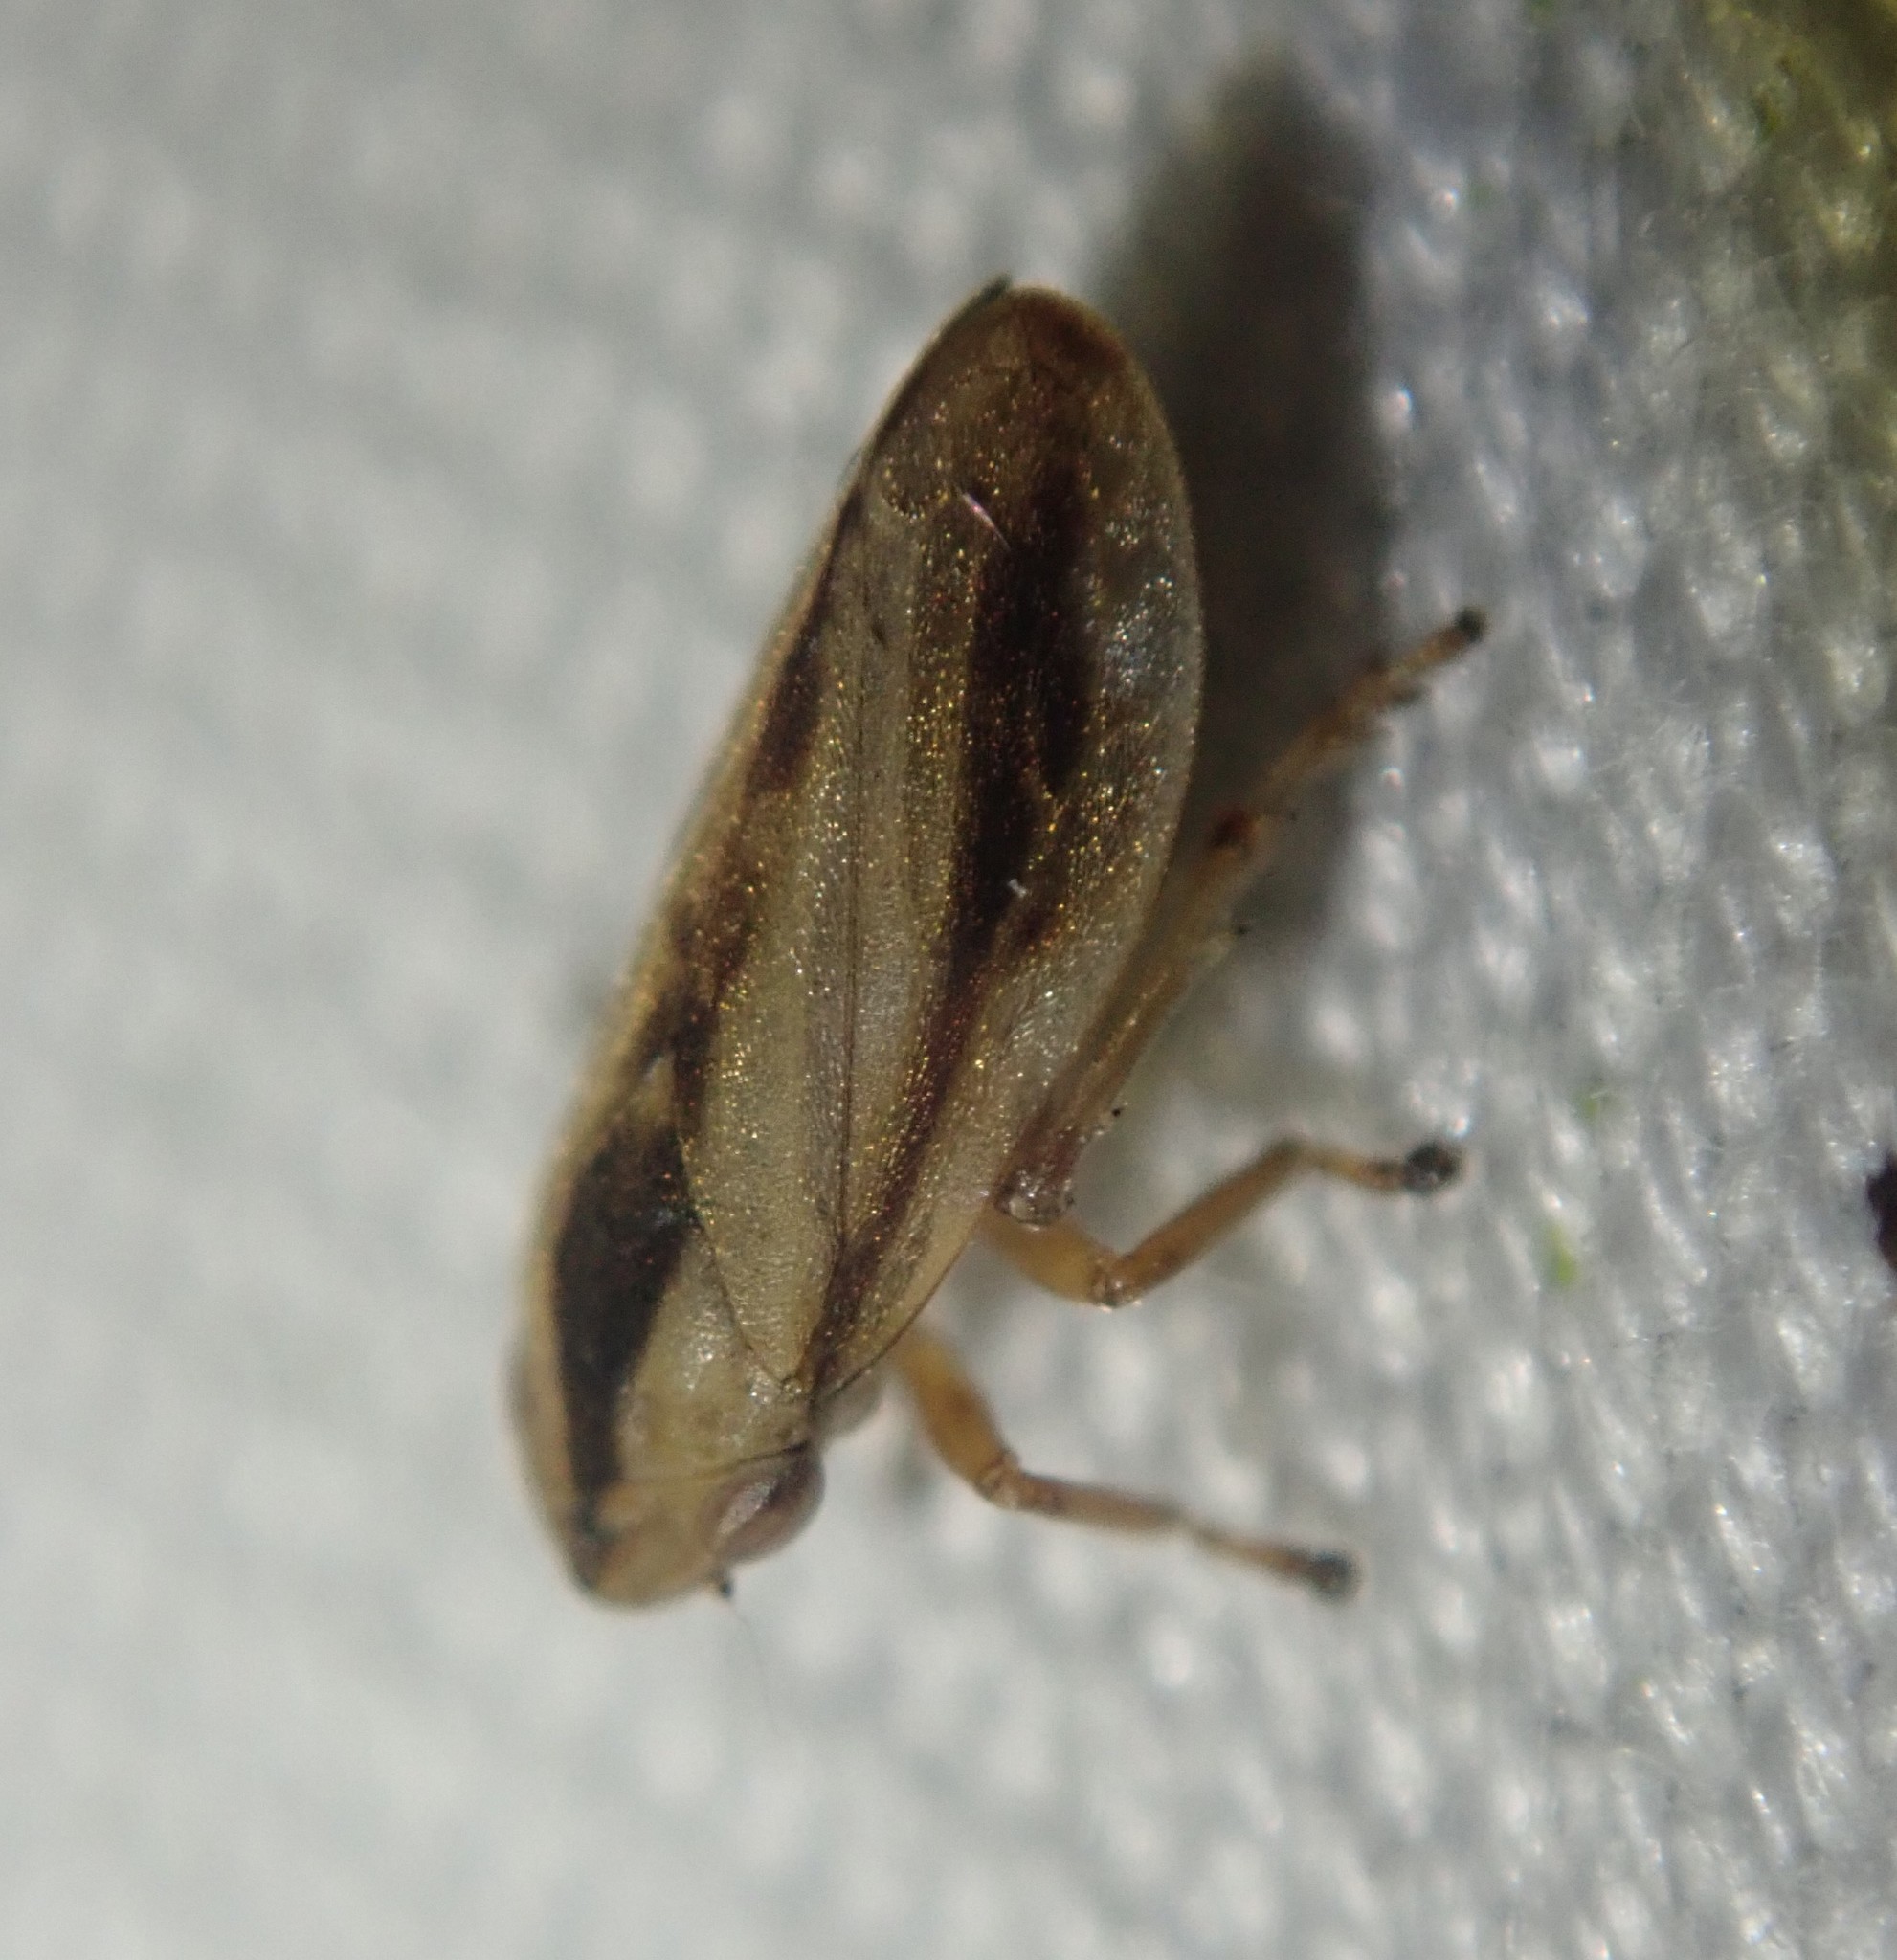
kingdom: Animalia
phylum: Arthropoda
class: Insecta
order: Hemiptera
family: Aphrophoridae
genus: Philaenus
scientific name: Philaenus spumarius
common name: Meadow spittlebug
